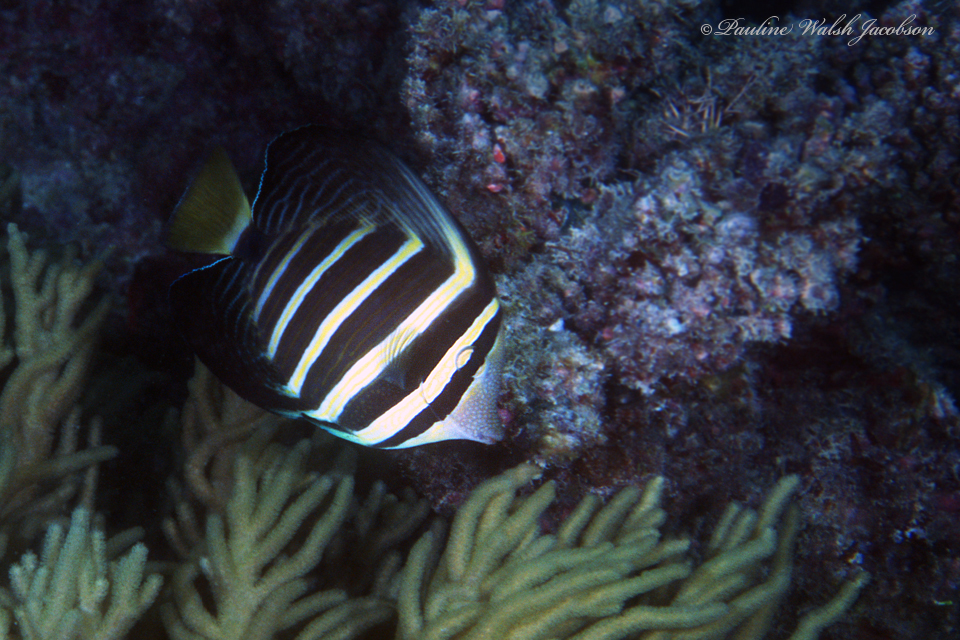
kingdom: Animalia
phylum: Chordata
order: Perciformes
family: Acanthuridae
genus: Zebrasoma
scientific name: Zebrasoma veliferum
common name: Sailfin surgeonfish
